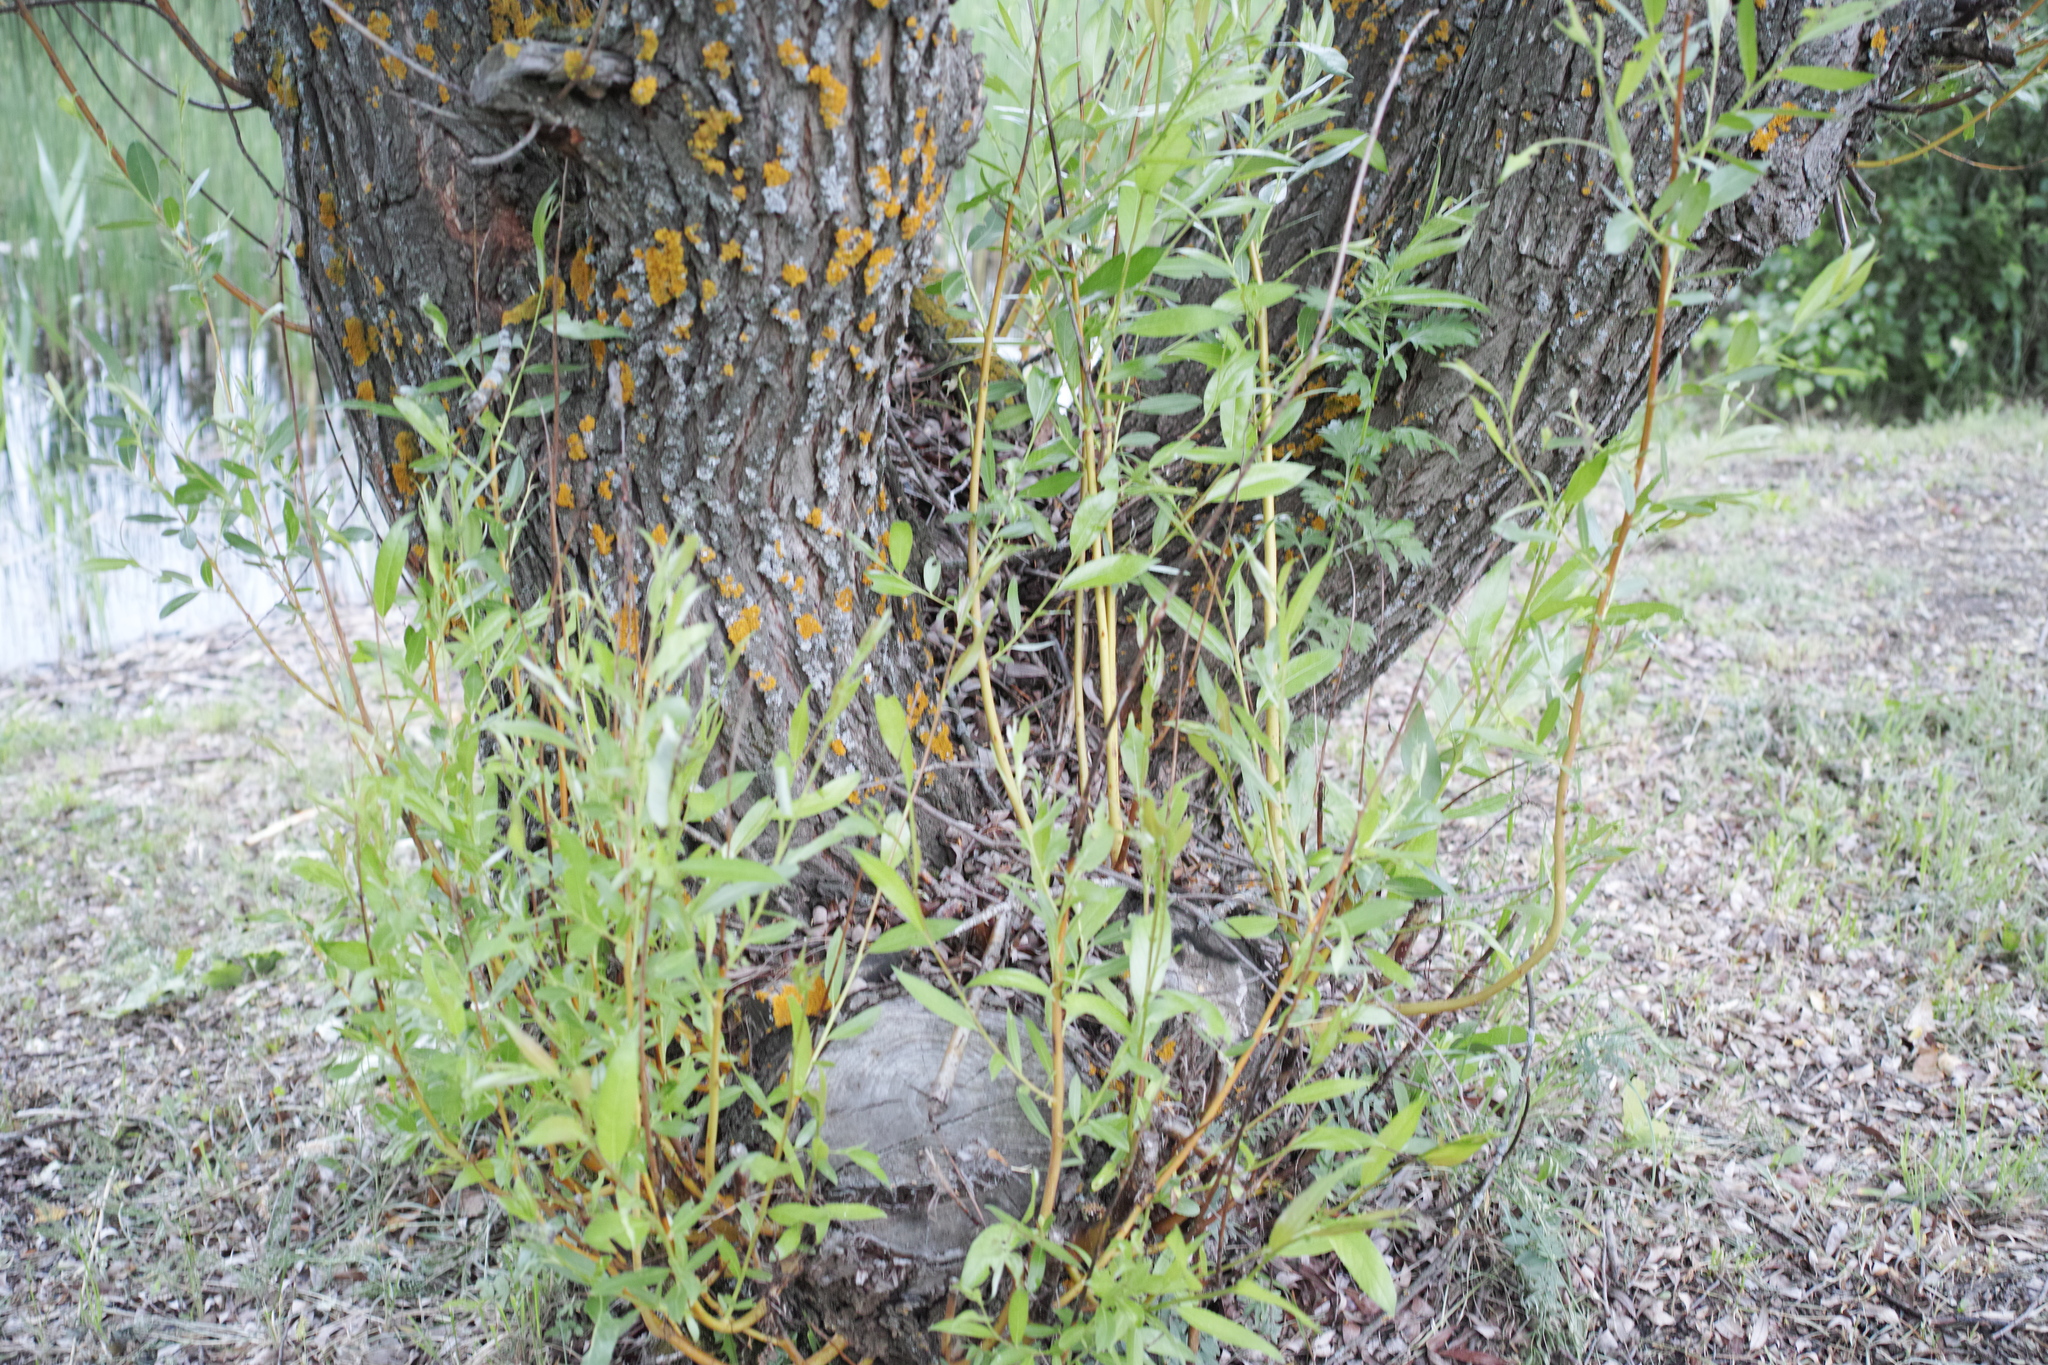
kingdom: Fungi
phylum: Ascomycota
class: Lecanoromycetes
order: Teloschistales
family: Teloschistaceae
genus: Xanthoria
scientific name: Xanthoria parietina
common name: Common orange lichen
